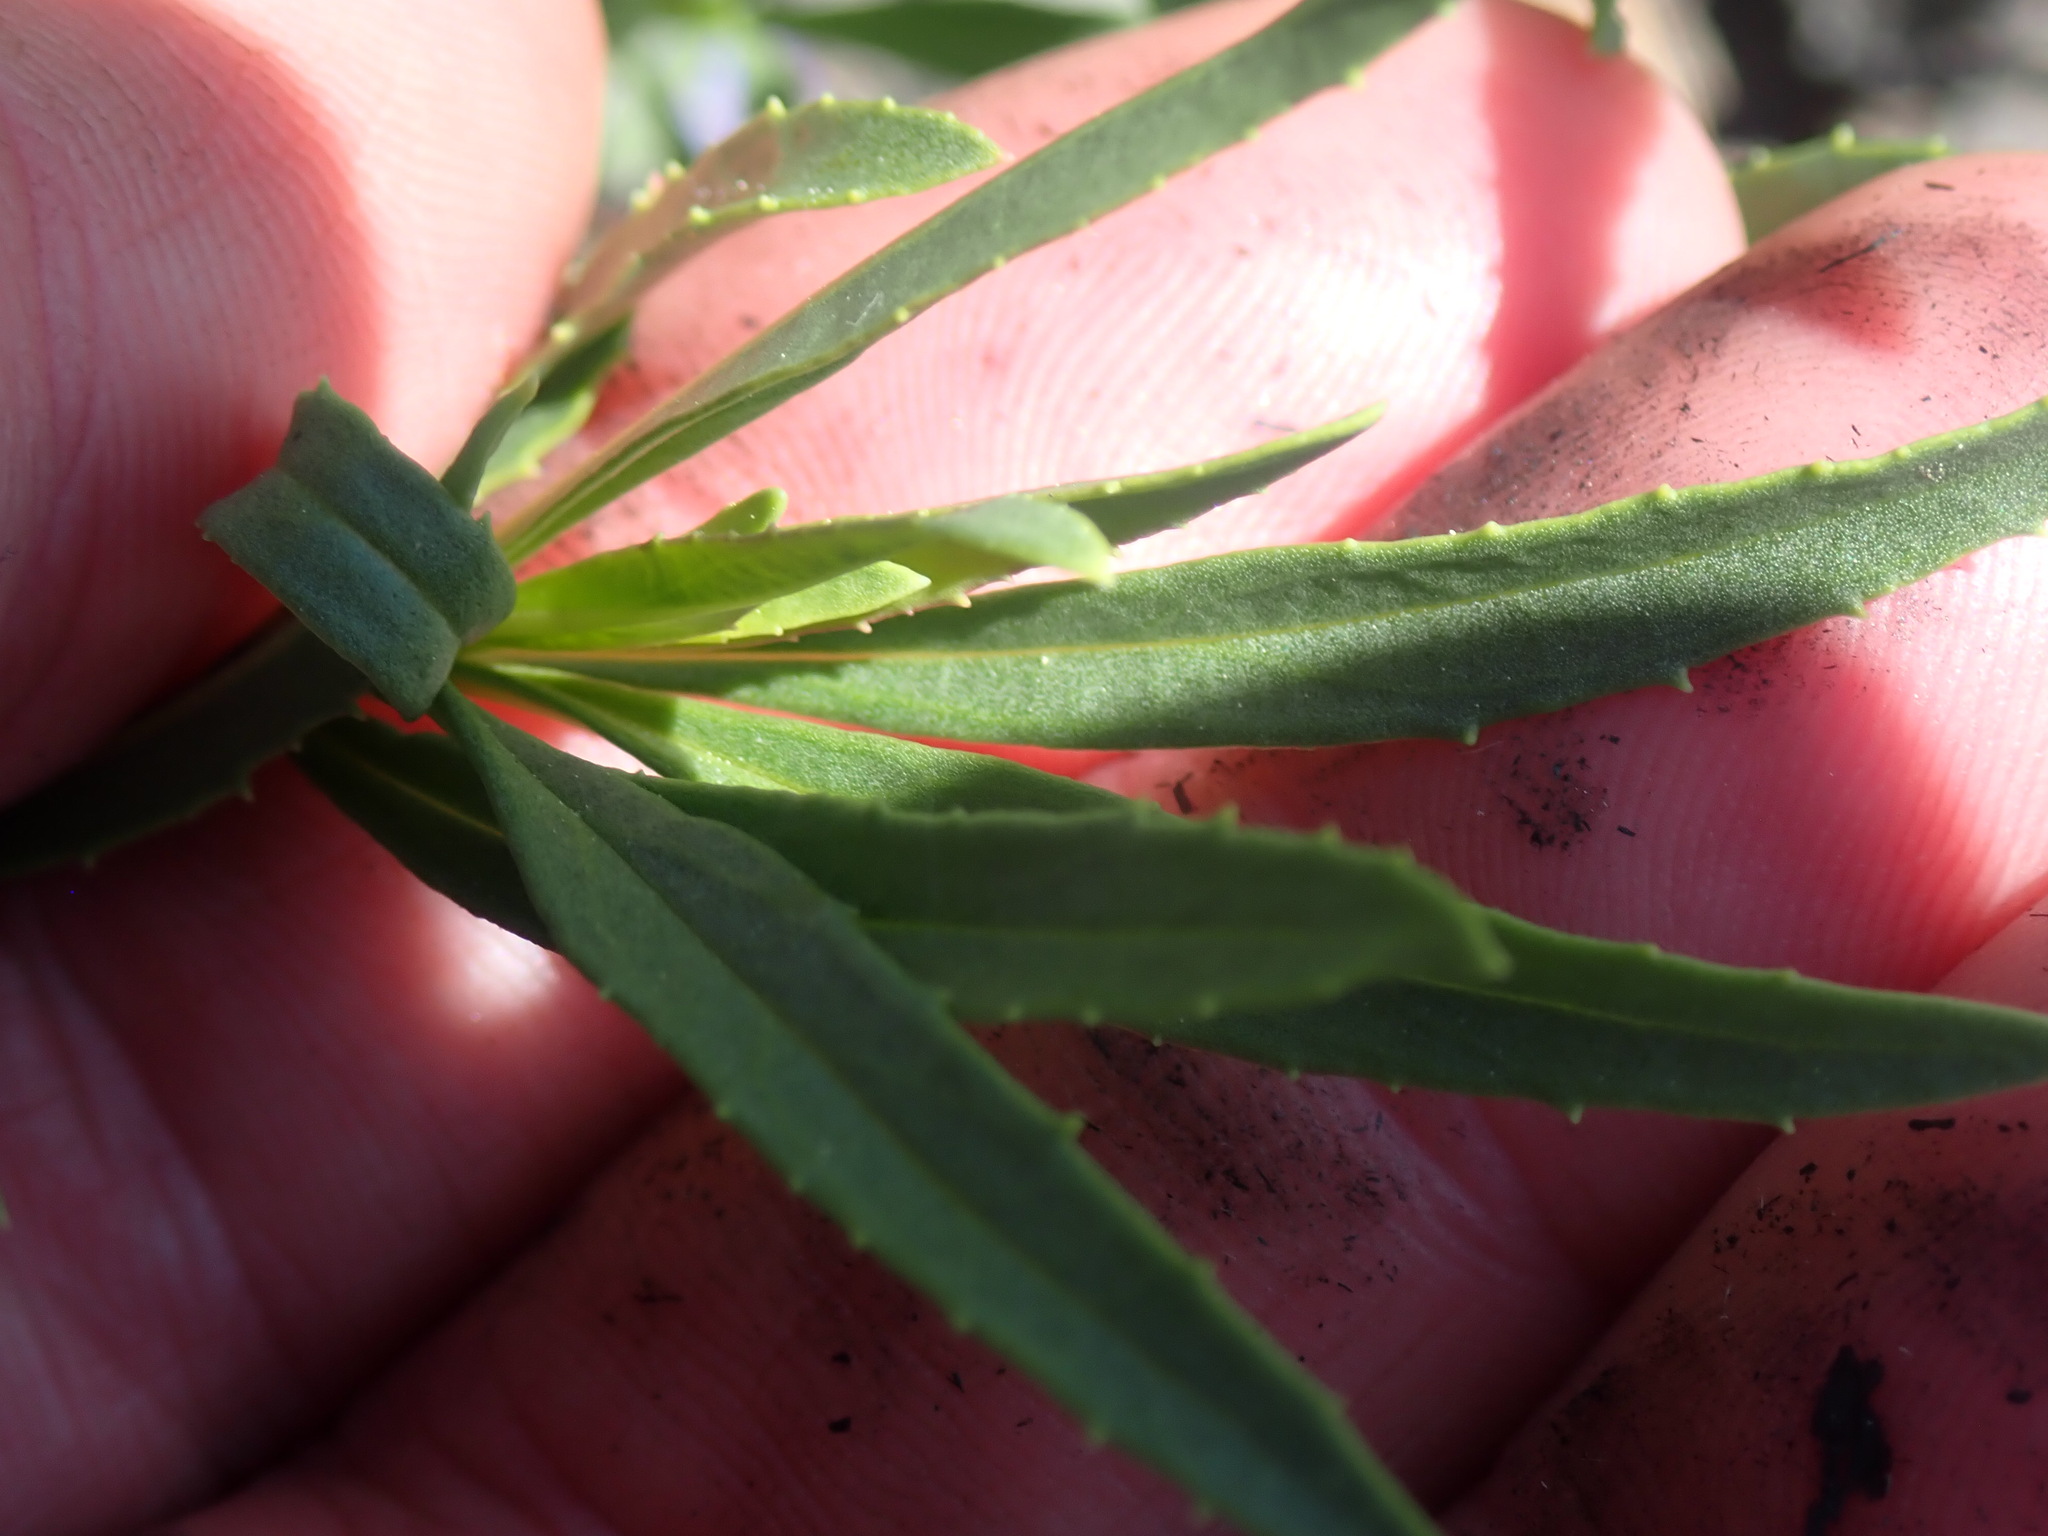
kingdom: Plantae
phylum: Tracheophyta
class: Magnoliopsida
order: Lamiales
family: Plantaginaceae
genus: Penstemon
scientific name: Penstemon fruticosus
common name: Bush penstemon
